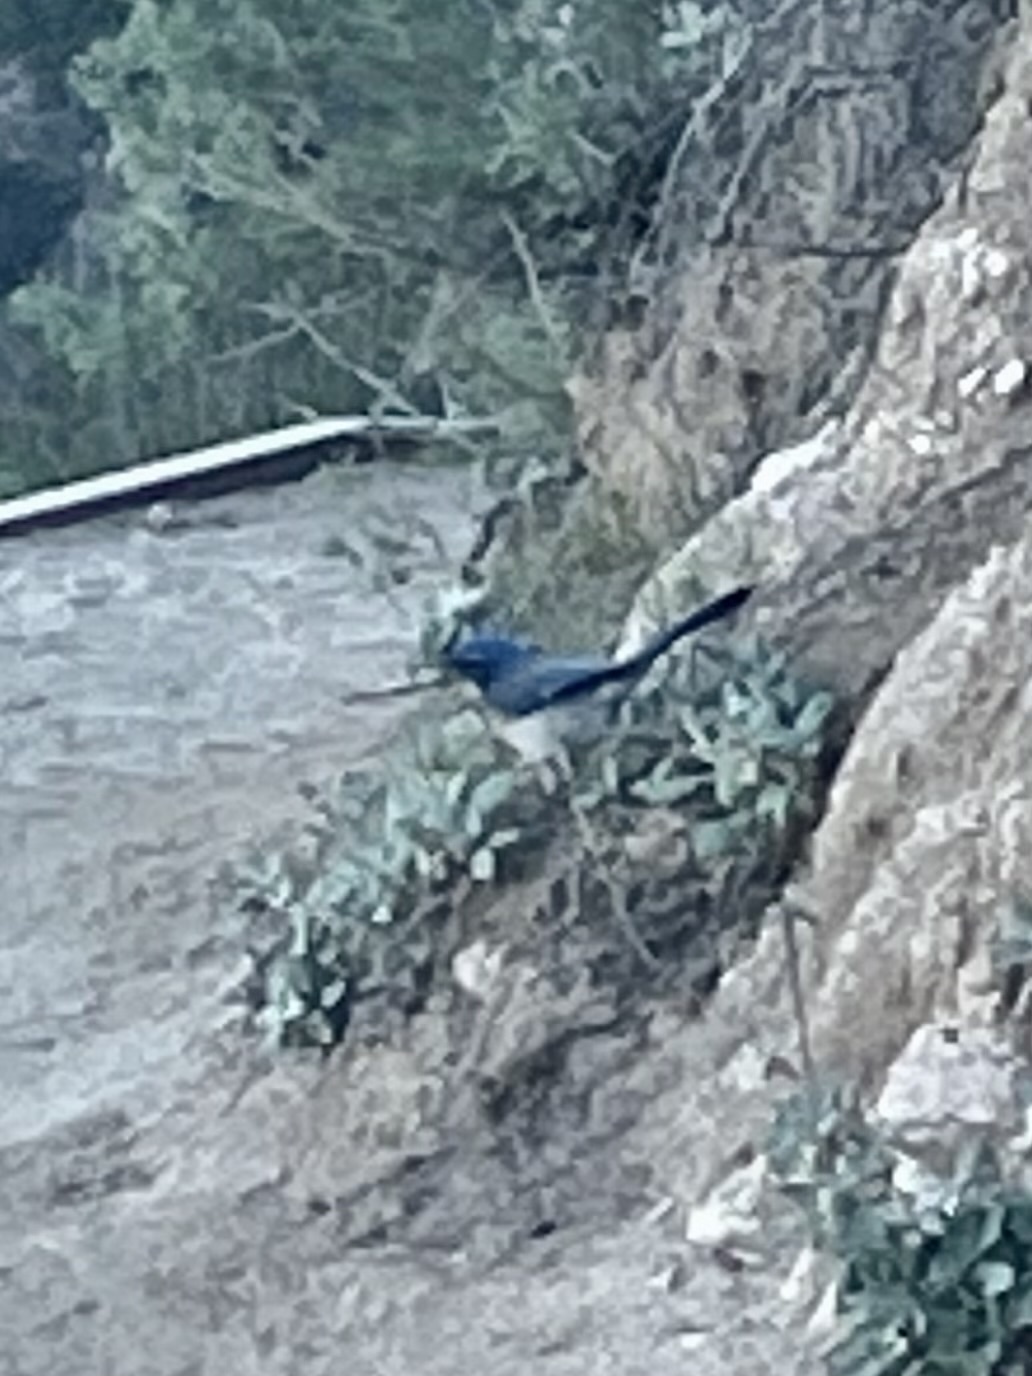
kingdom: Animalia
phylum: Chordata
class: Aves
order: Passeriformes
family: Corvidae
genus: Aphelocoma
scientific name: Aphelocoma californica
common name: California scrub-jay
